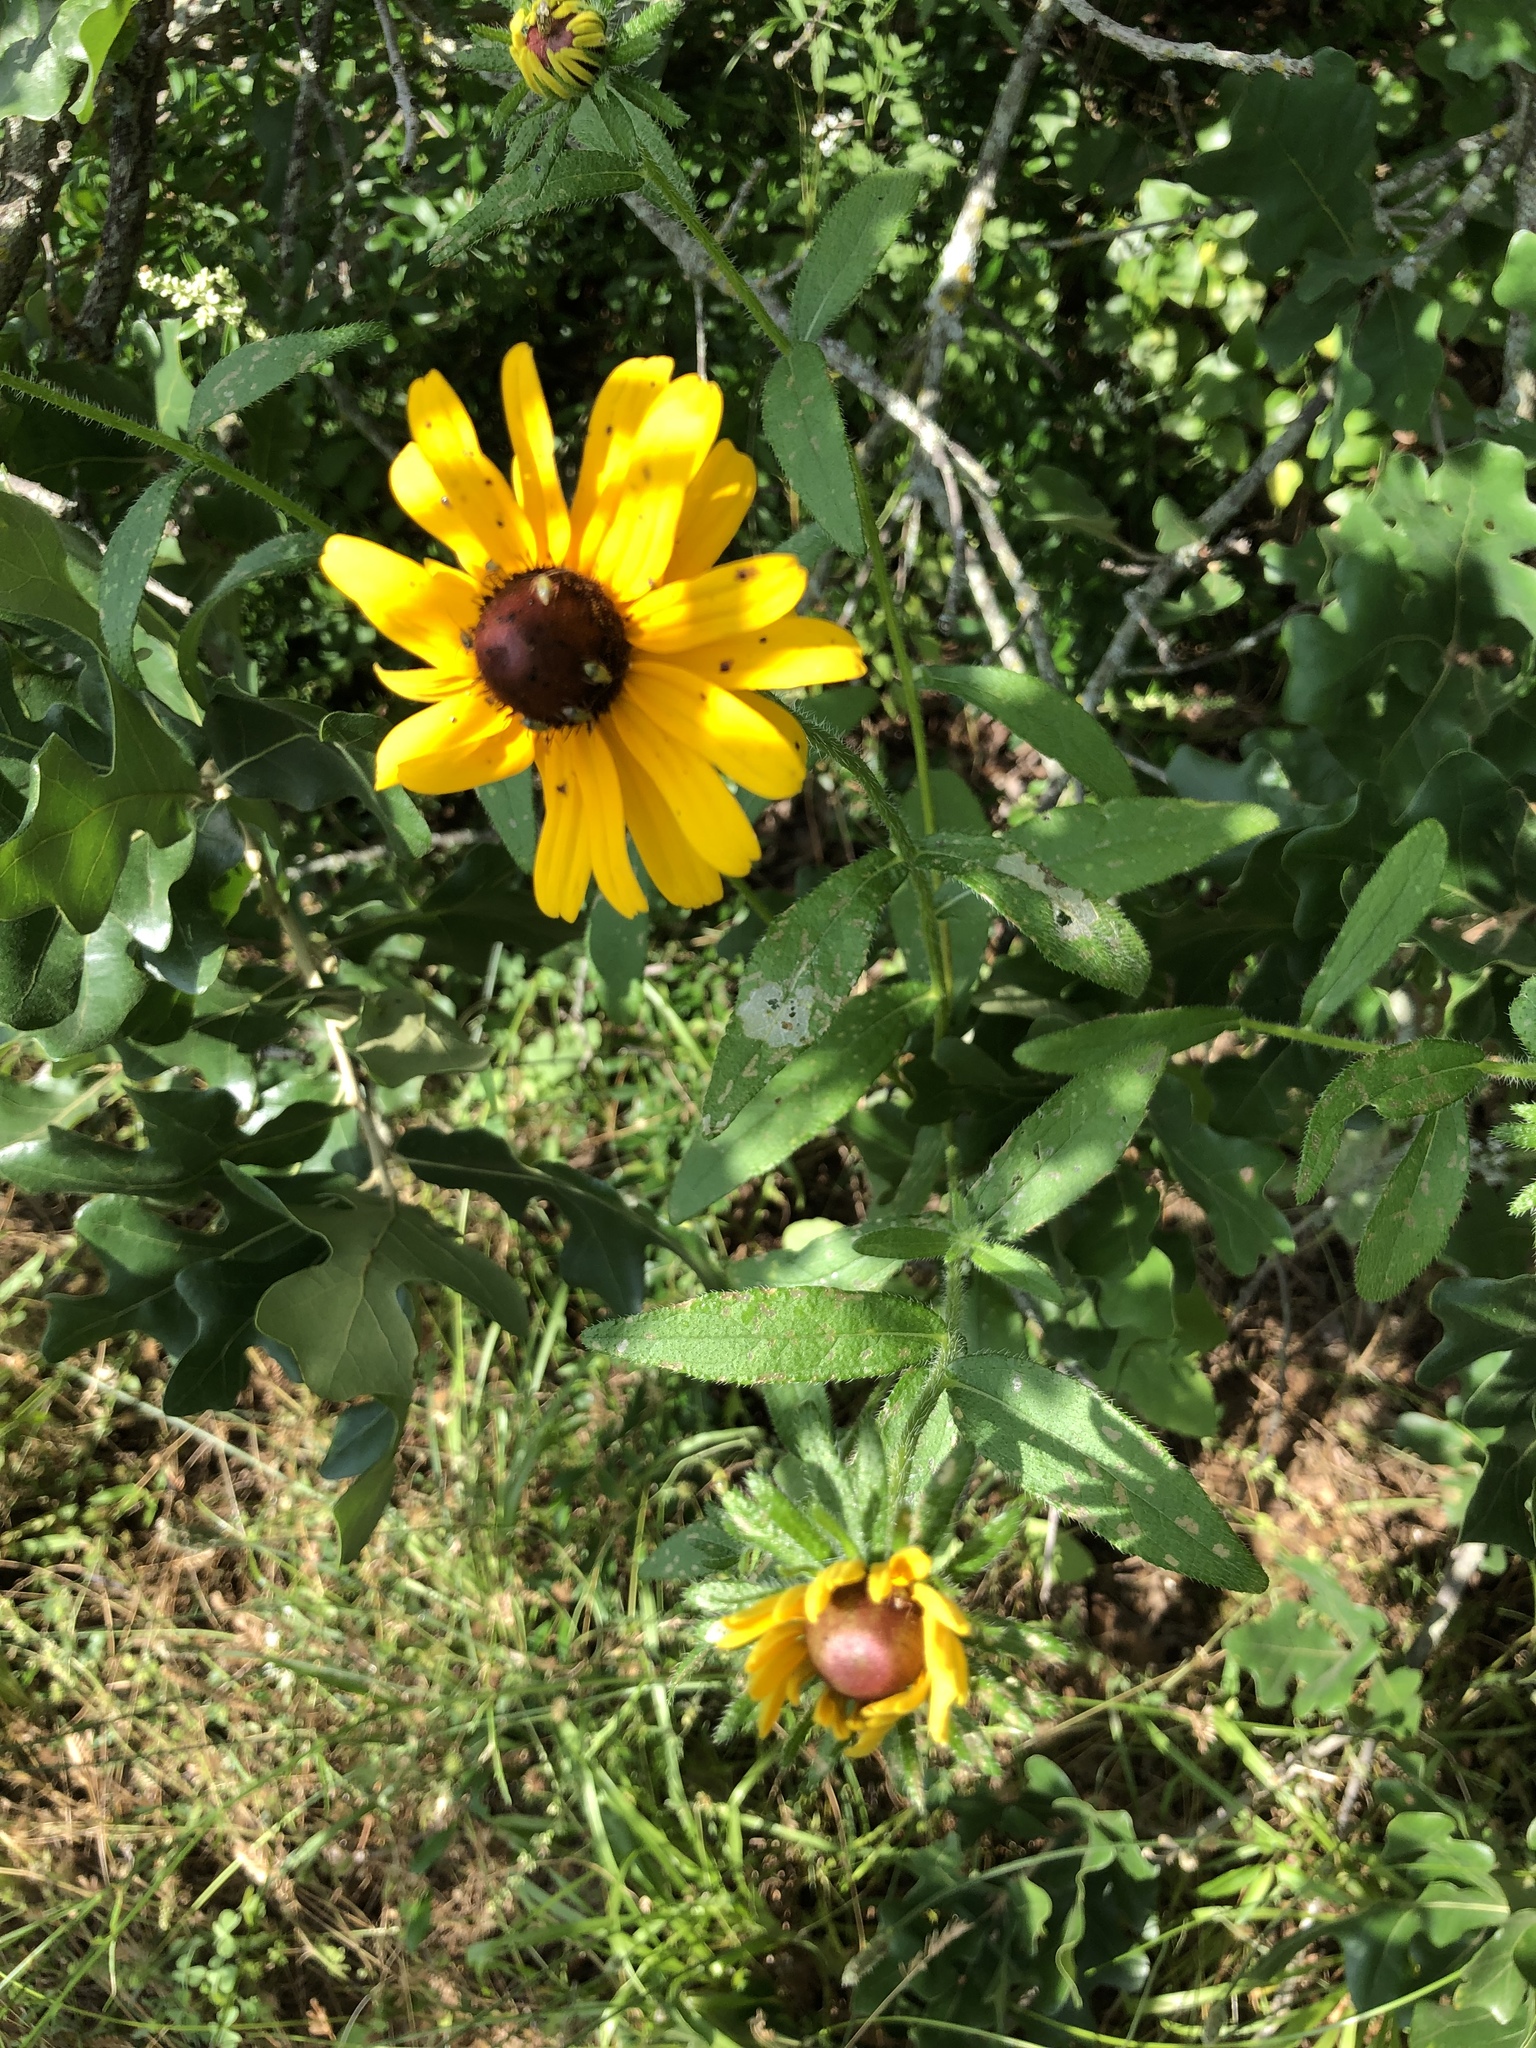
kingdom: Plantae
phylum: Tracheophyta
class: Magnoliopsida
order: Asterales
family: Asteraceae
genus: Rudbeckia
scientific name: Rudbeckia hirta
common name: Black-eyed-susan
